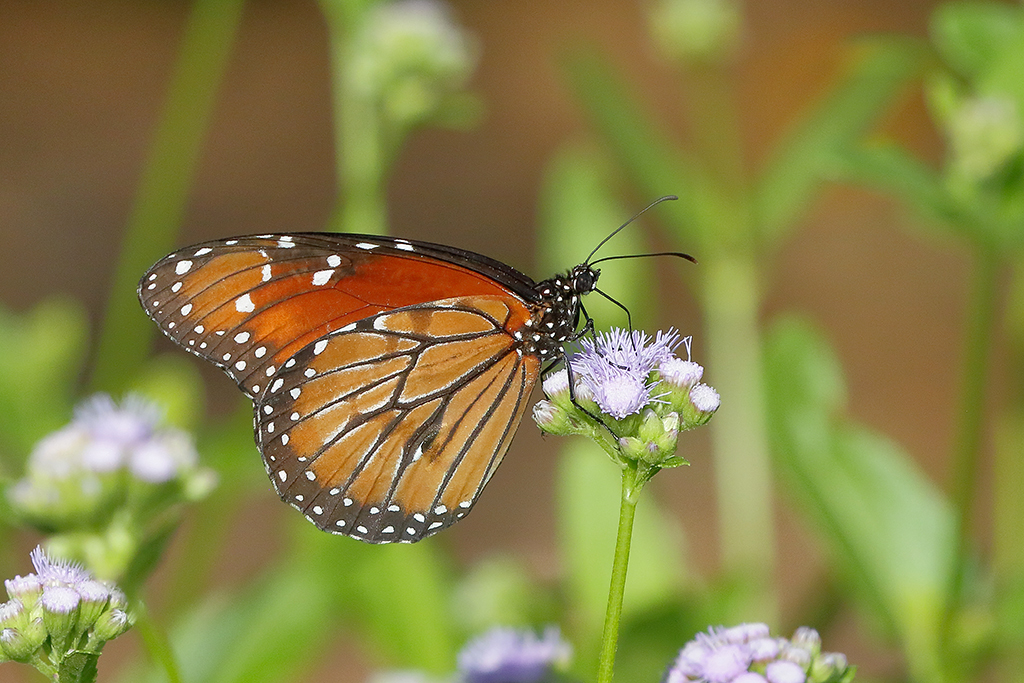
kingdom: Animalia
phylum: Arthropoda
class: Insecta
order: Lepidoptera
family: Nymphalidae
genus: Danaus
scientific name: Danaus eresimus
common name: Soldier
